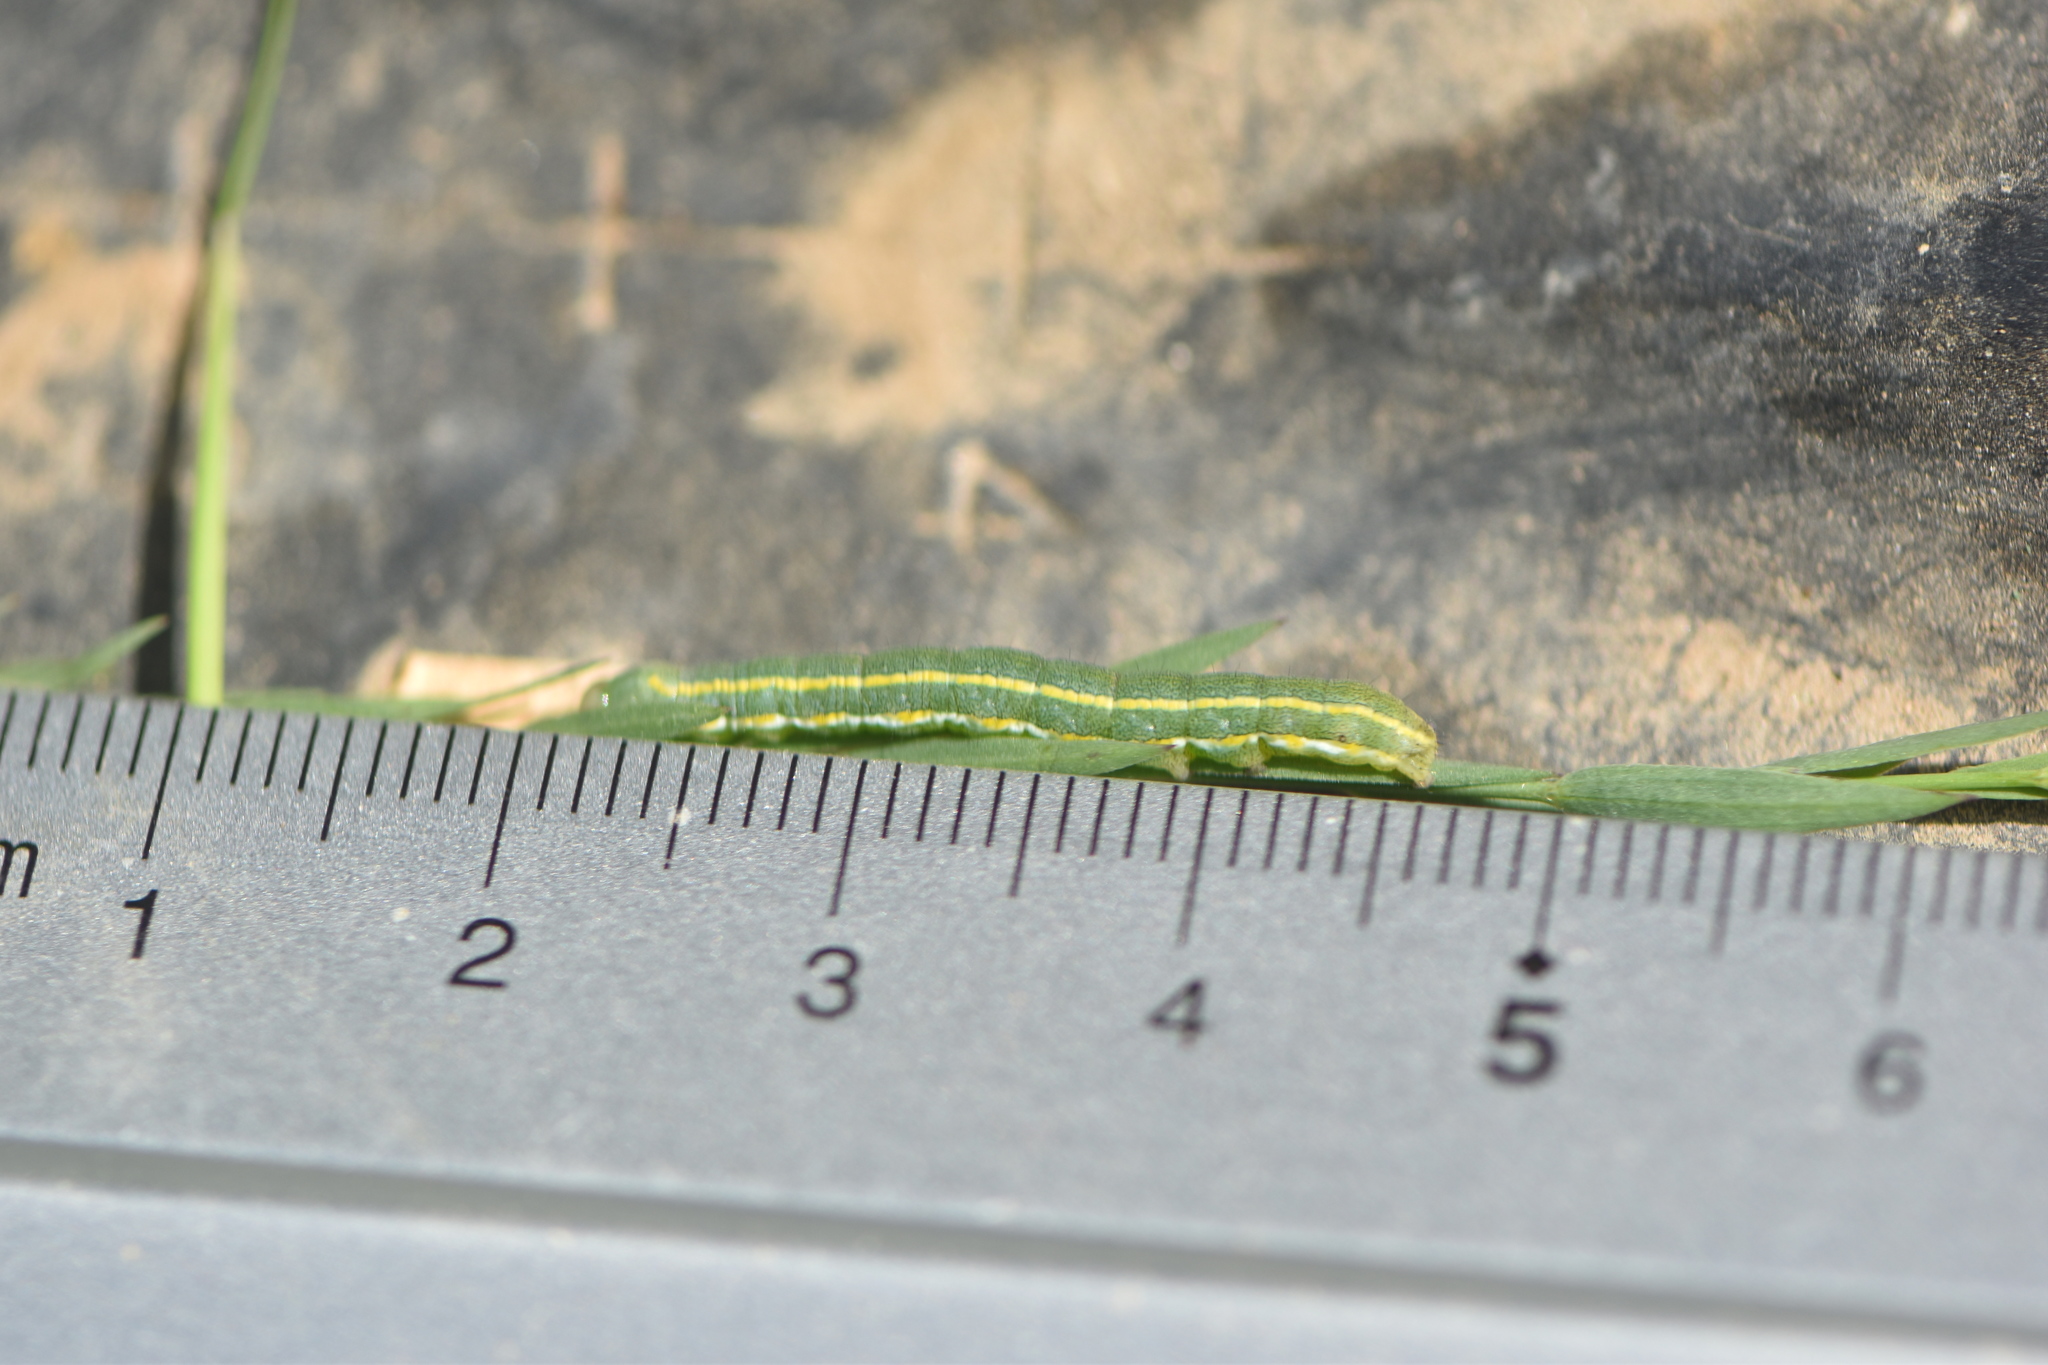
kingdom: Animalia
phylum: Arthropoda
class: Insecta
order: Lepidoptera
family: Noctuidae
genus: Xylena
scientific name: Xylena exsoleta
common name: Sword-grass
